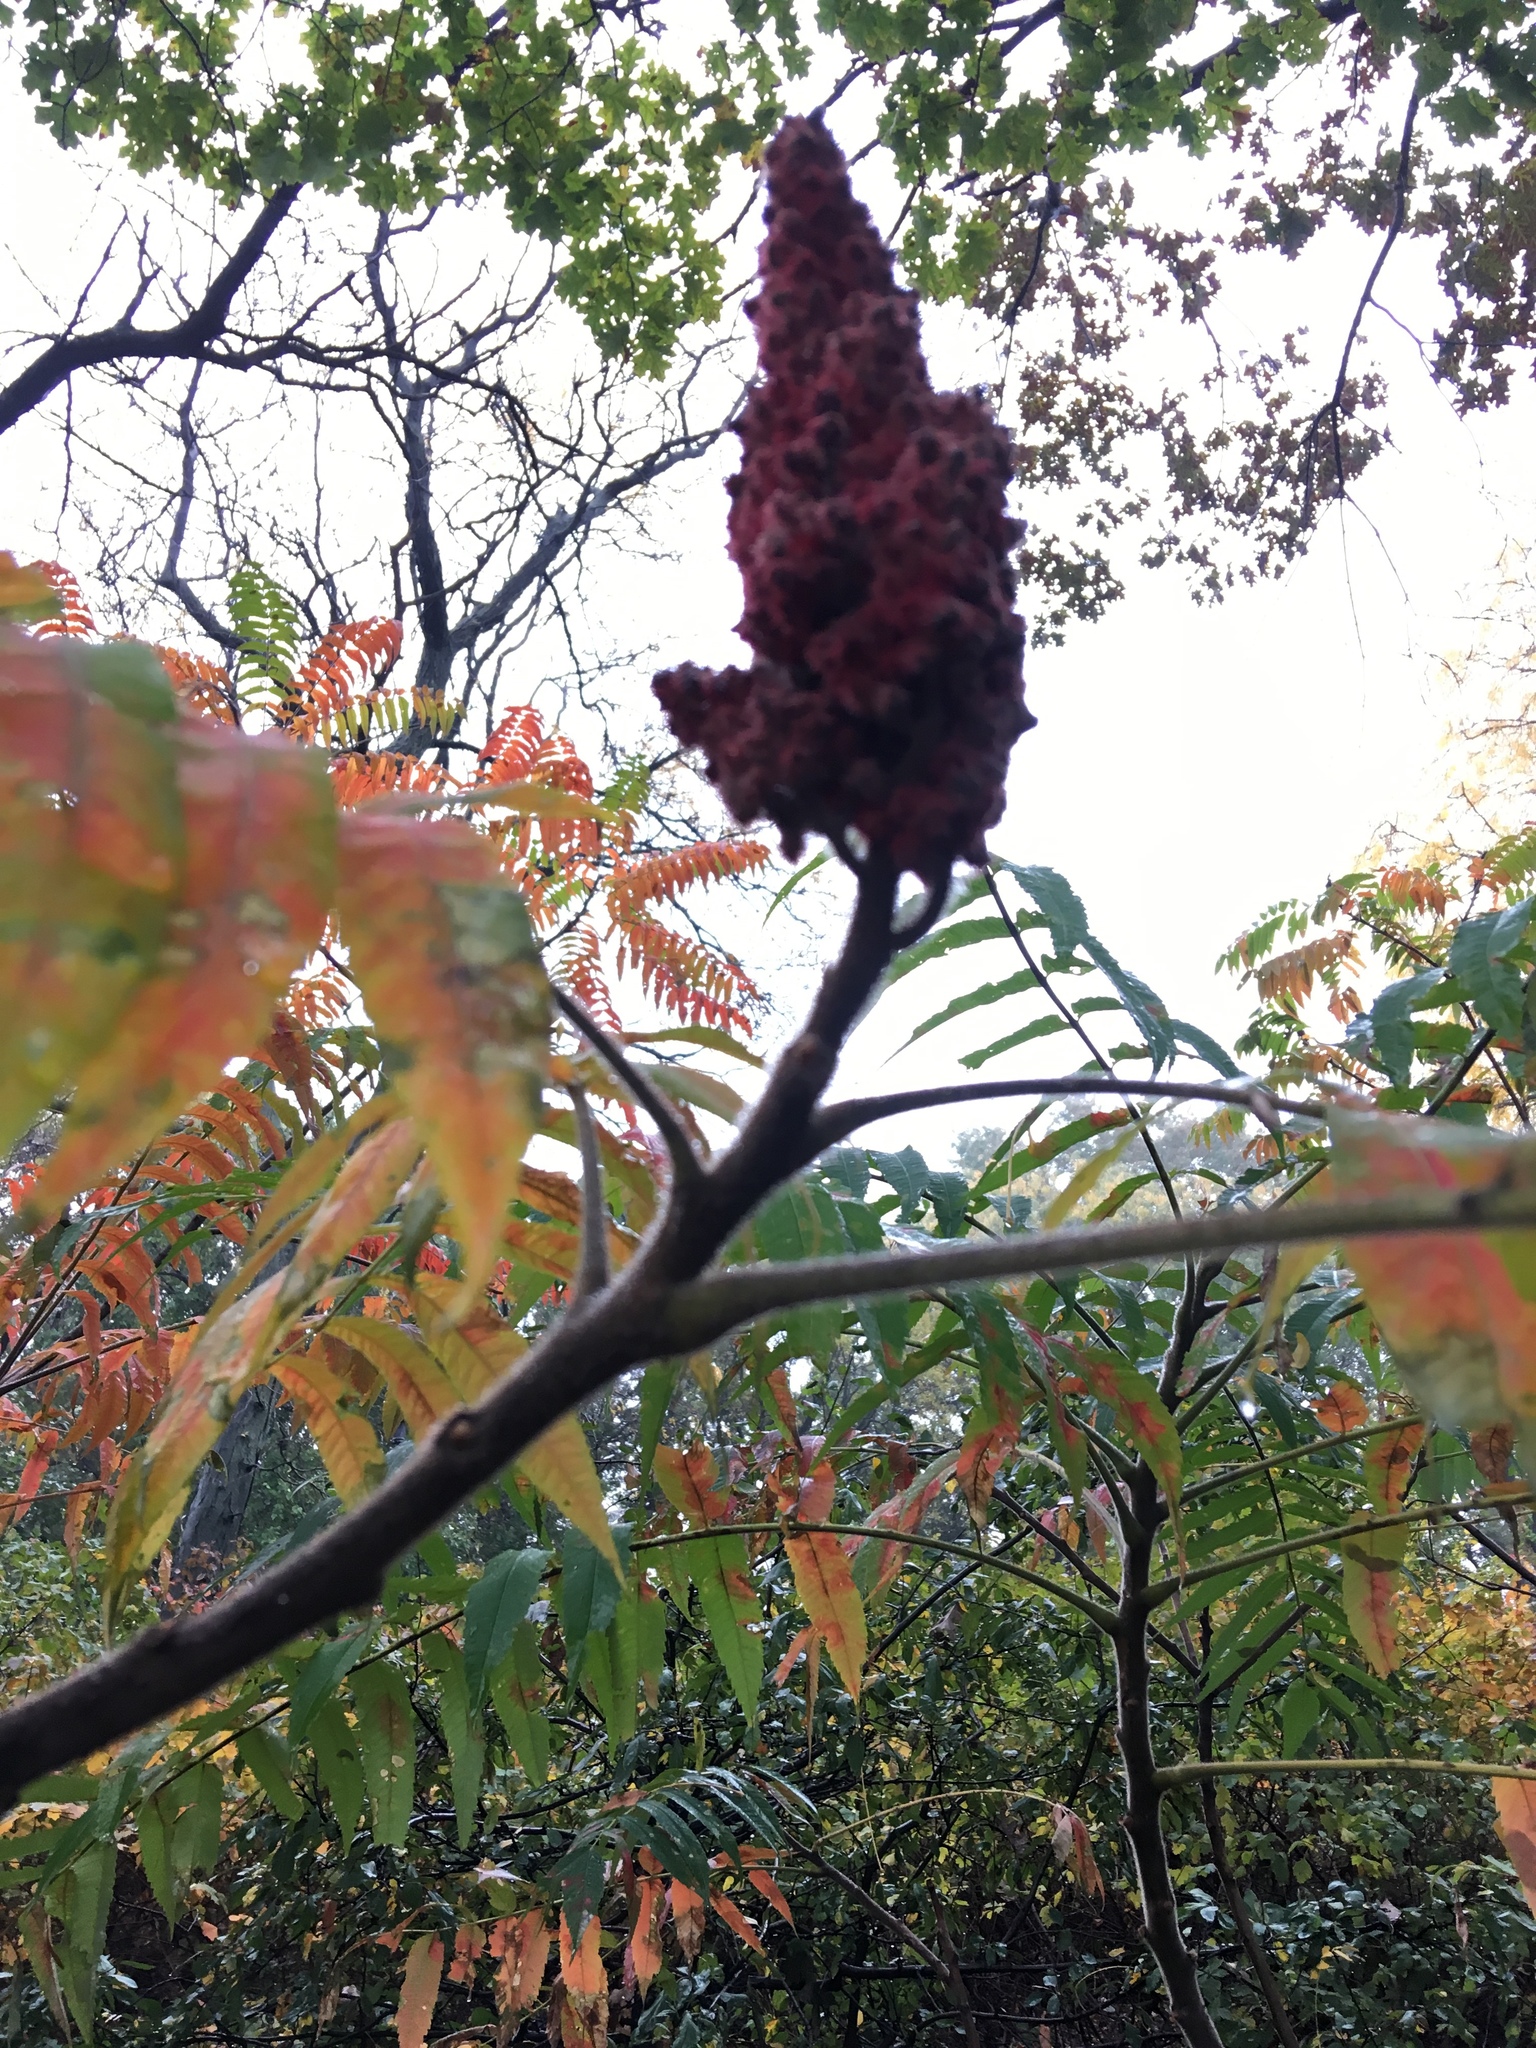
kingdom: Plantae
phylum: Tracheophyta
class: Magnoliopsida
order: Sapindales
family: Anacardiaceae
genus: Rhus
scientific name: Rhus typhina
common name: Staghorn sumac
